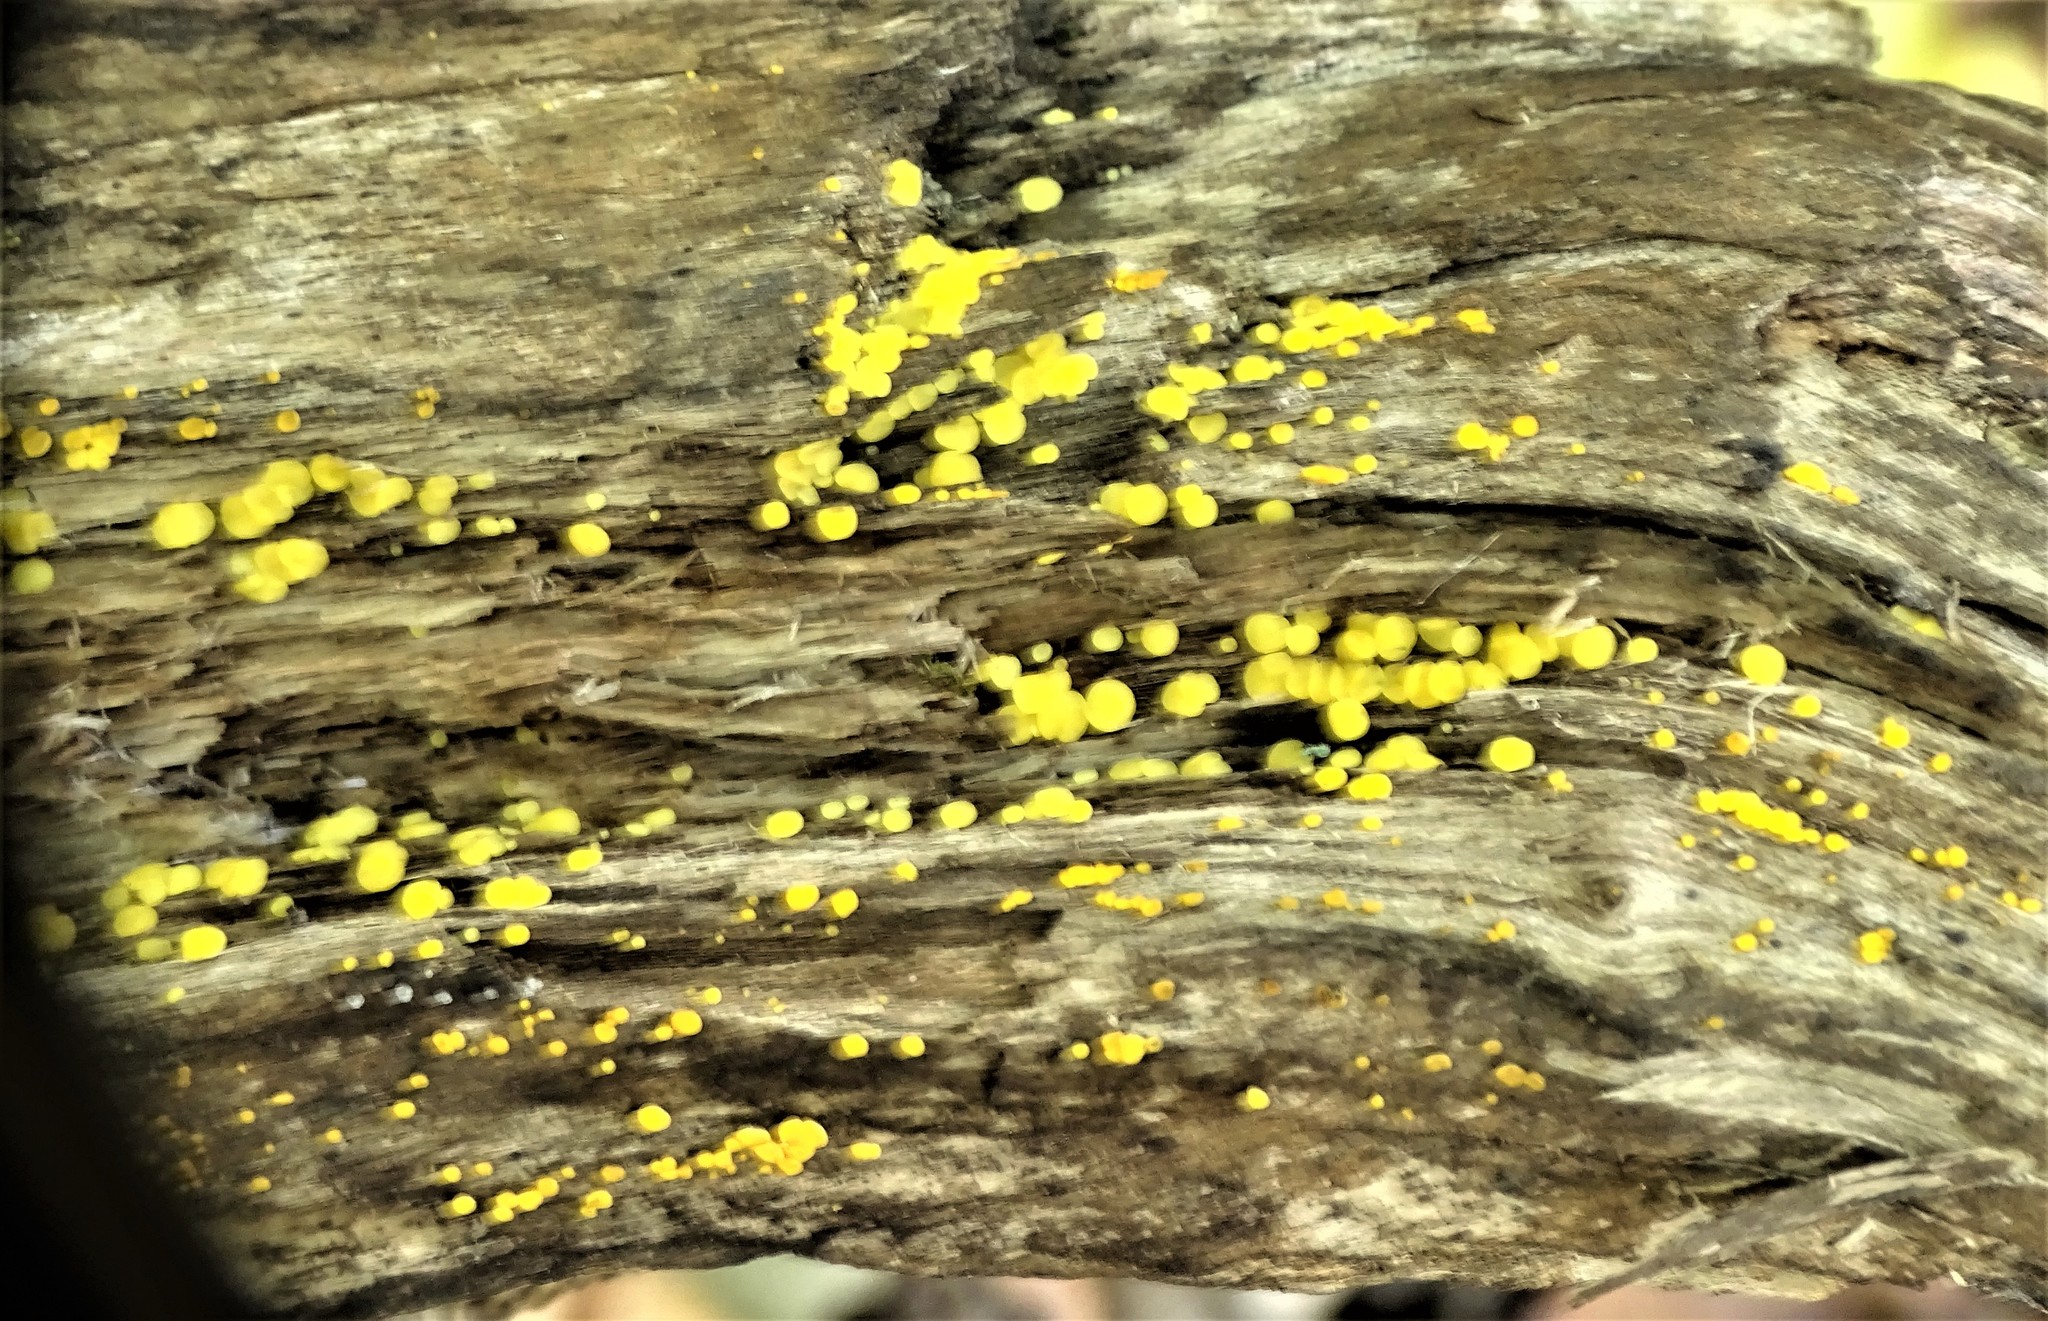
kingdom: Fungi
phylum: Ascomycota
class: Leotiomycetes
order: Helotiales
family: Pezizellaceae
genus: Calycina
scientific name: Calycina citrina
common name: Yellow fairy cups
